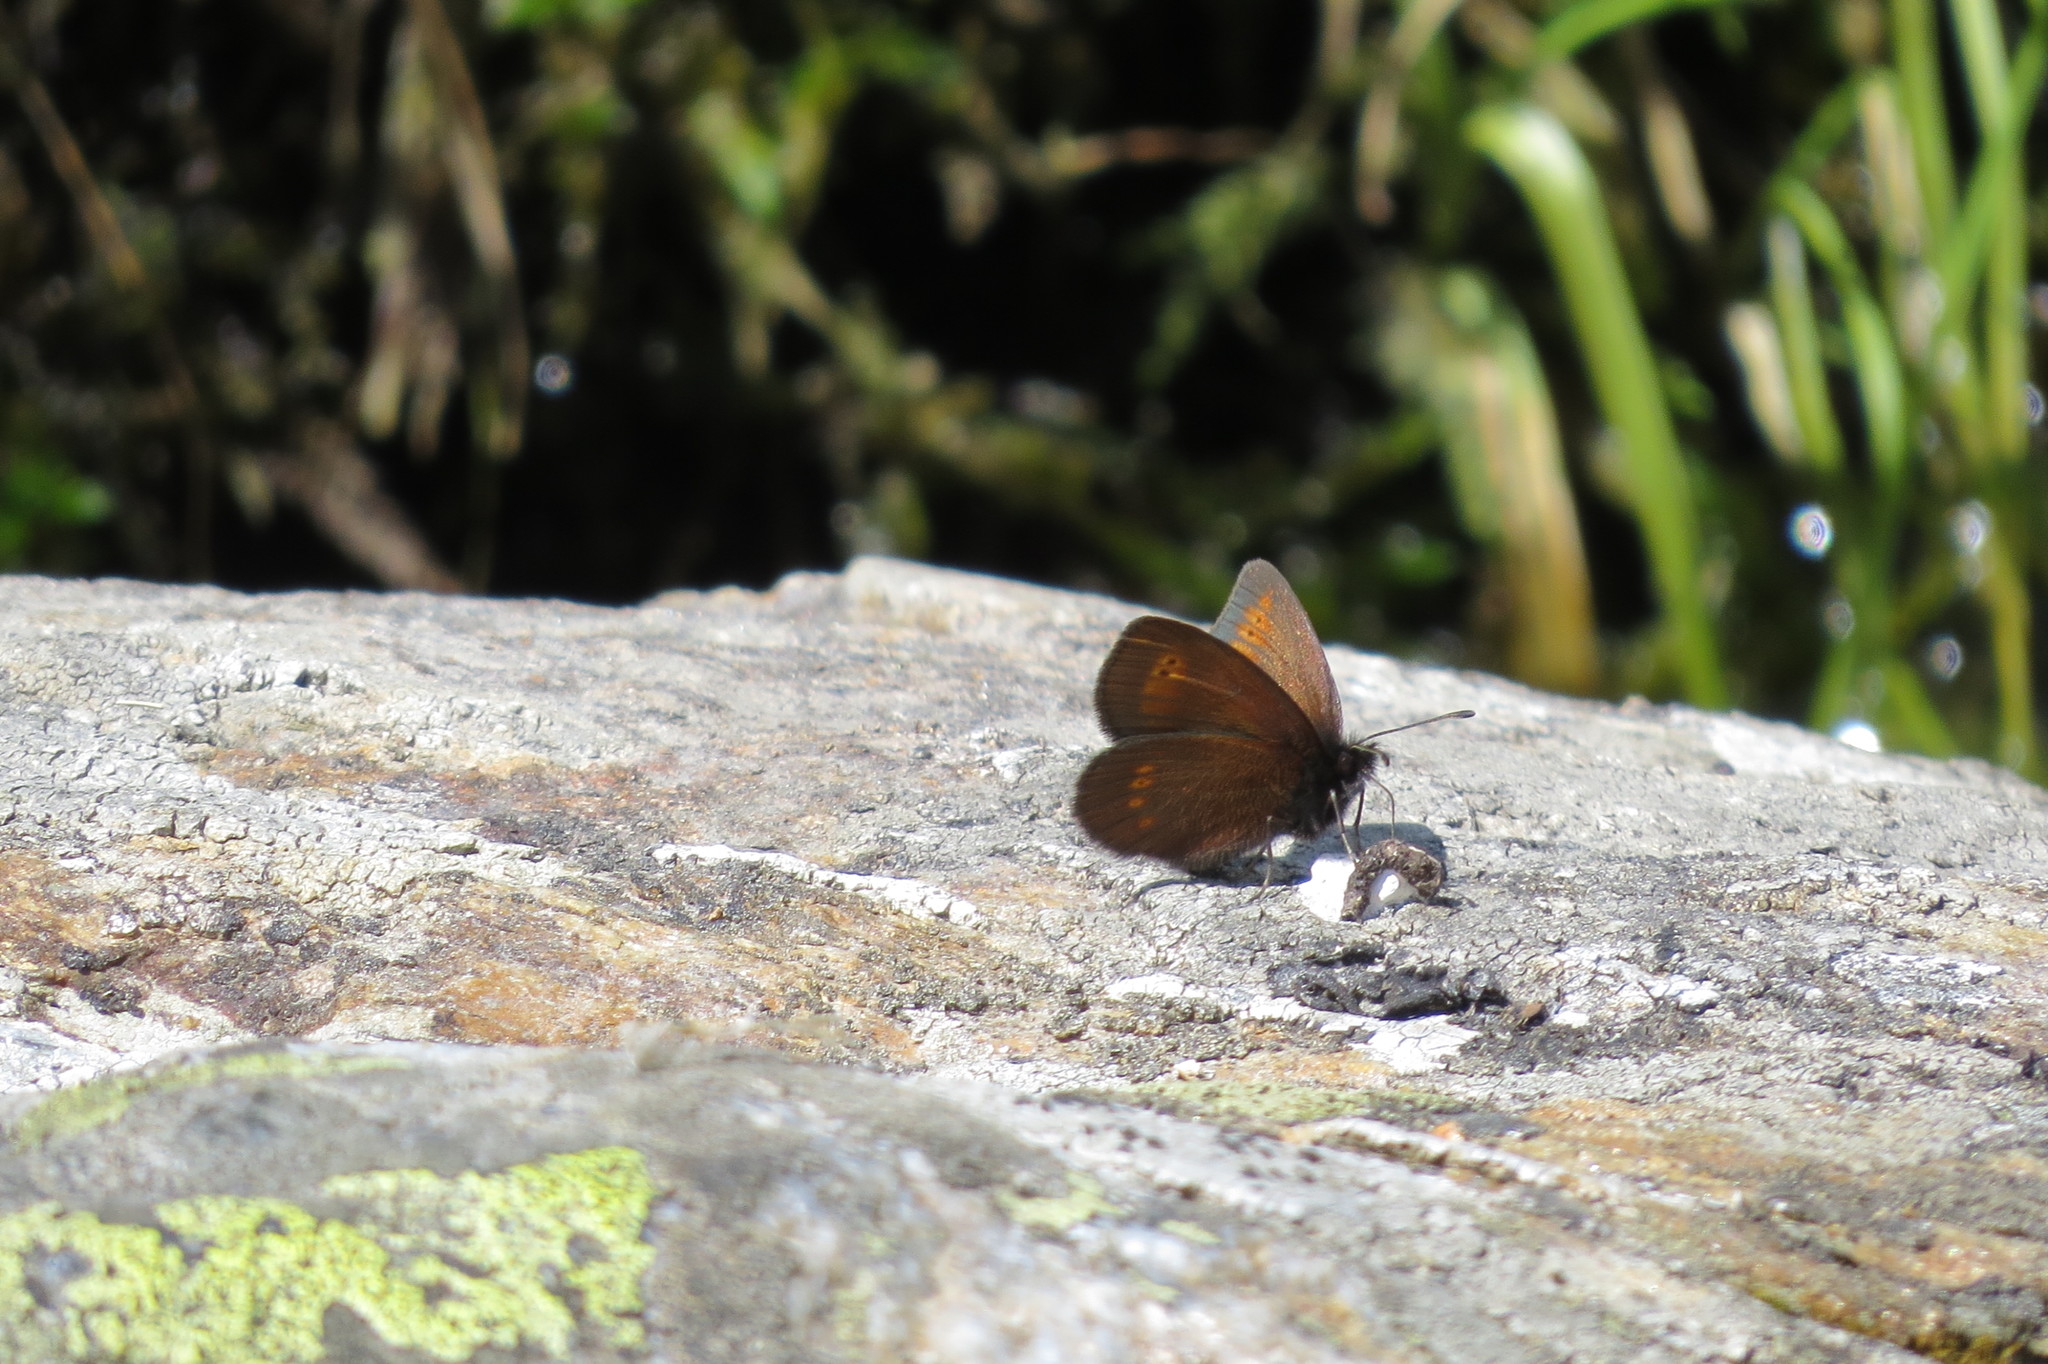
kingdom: Animalia
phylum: Arthropoda
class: Insecta
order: Lepidoptera
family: Nymphalidae
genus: Erebia
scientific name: Erebia melampus
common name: Lesser mountain ringlet
